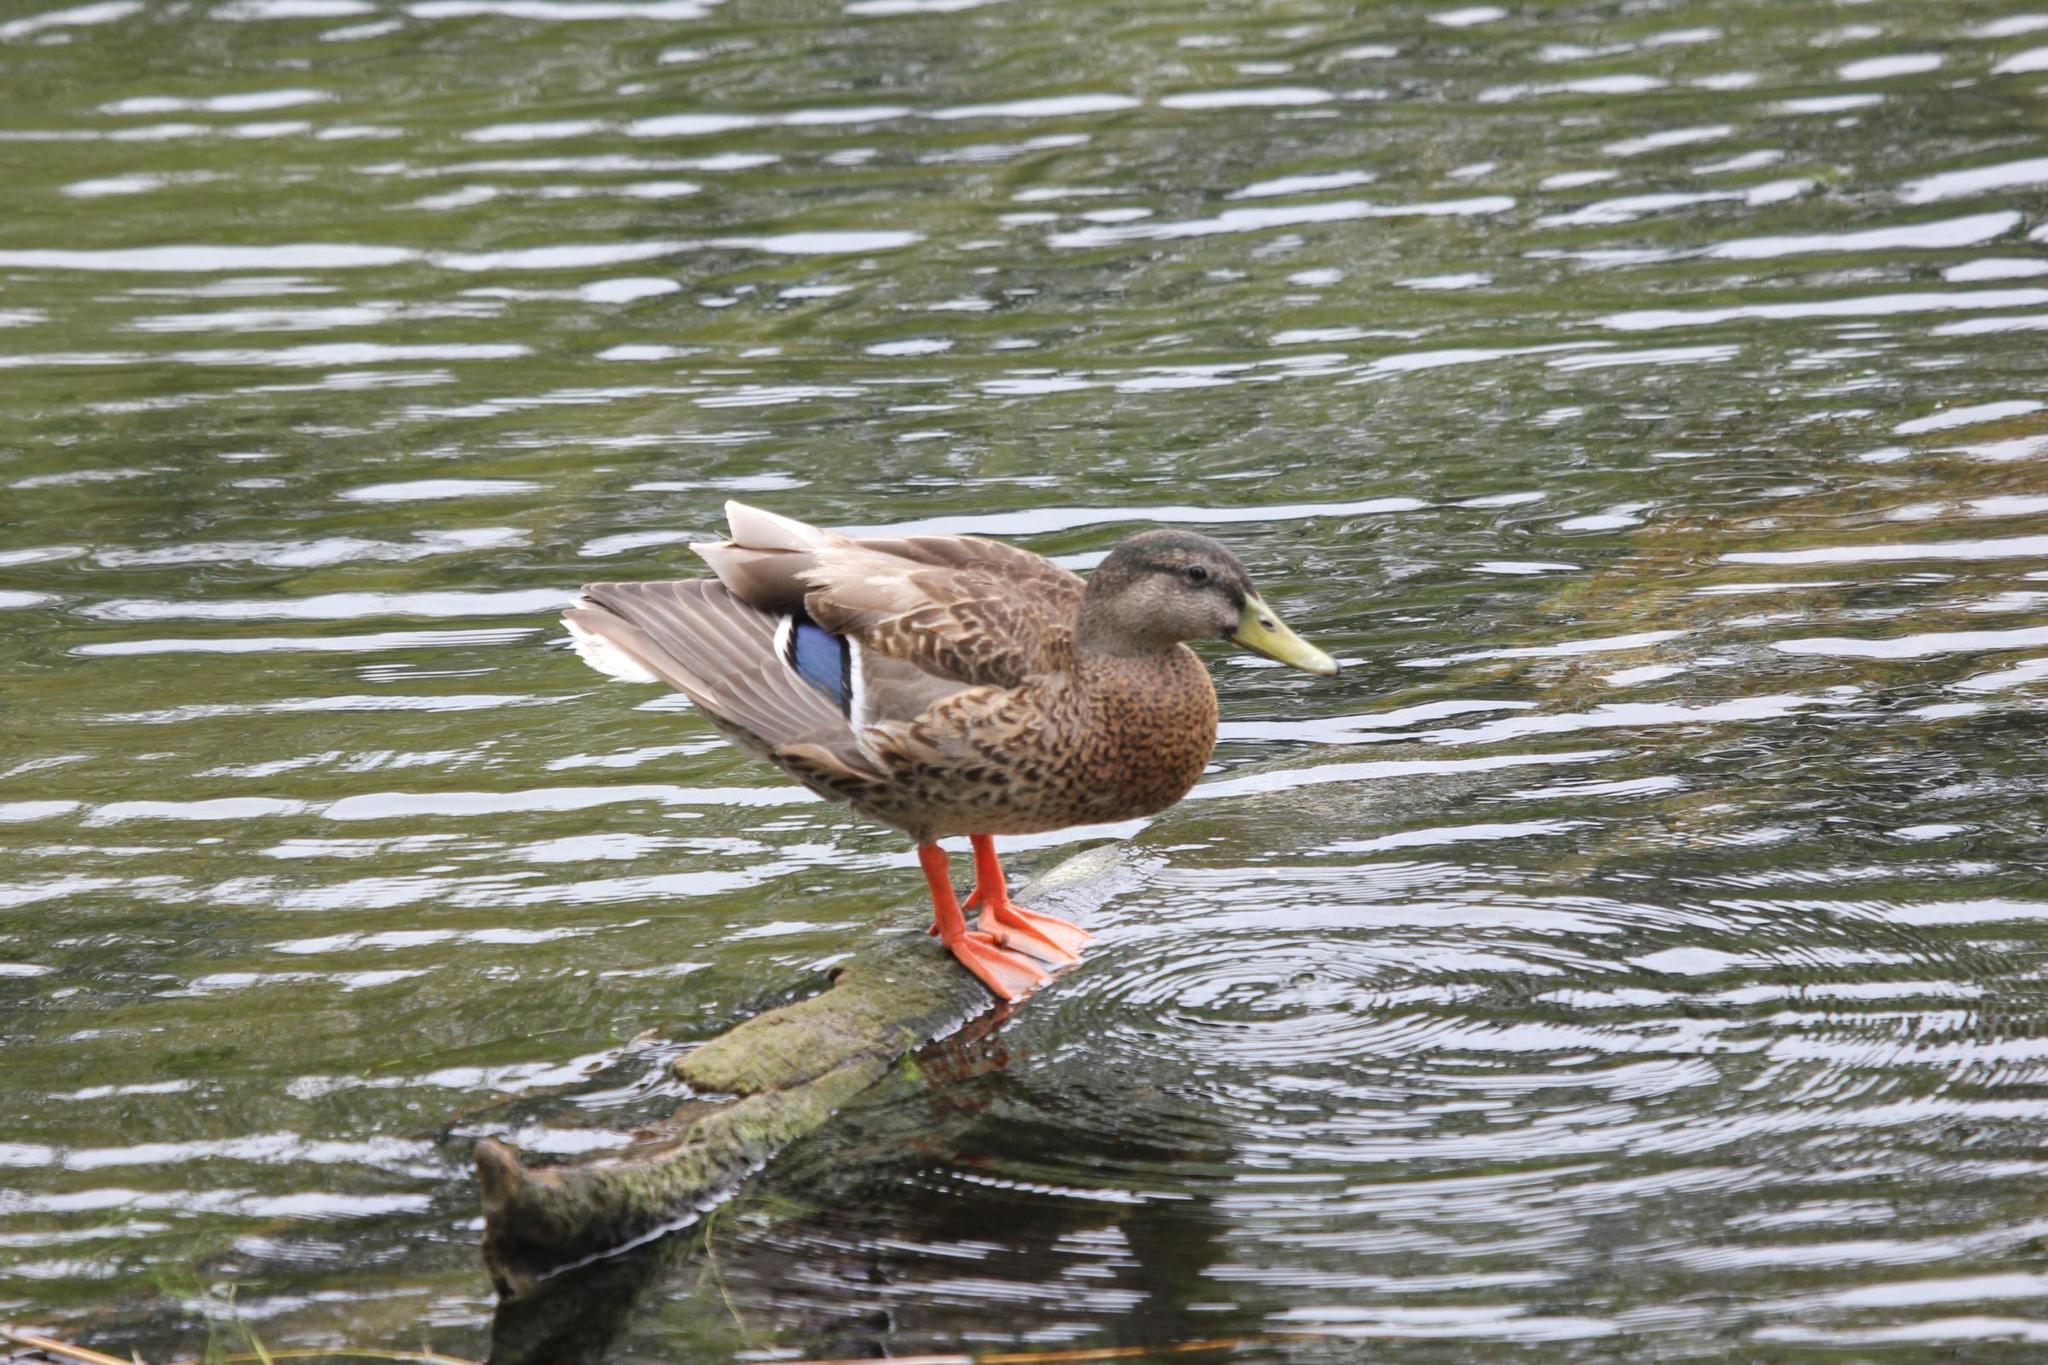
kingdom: Animalia
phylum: Chordata
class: Aves
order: Anseriformes
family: Anatidae
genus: Anas
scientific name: Anas
